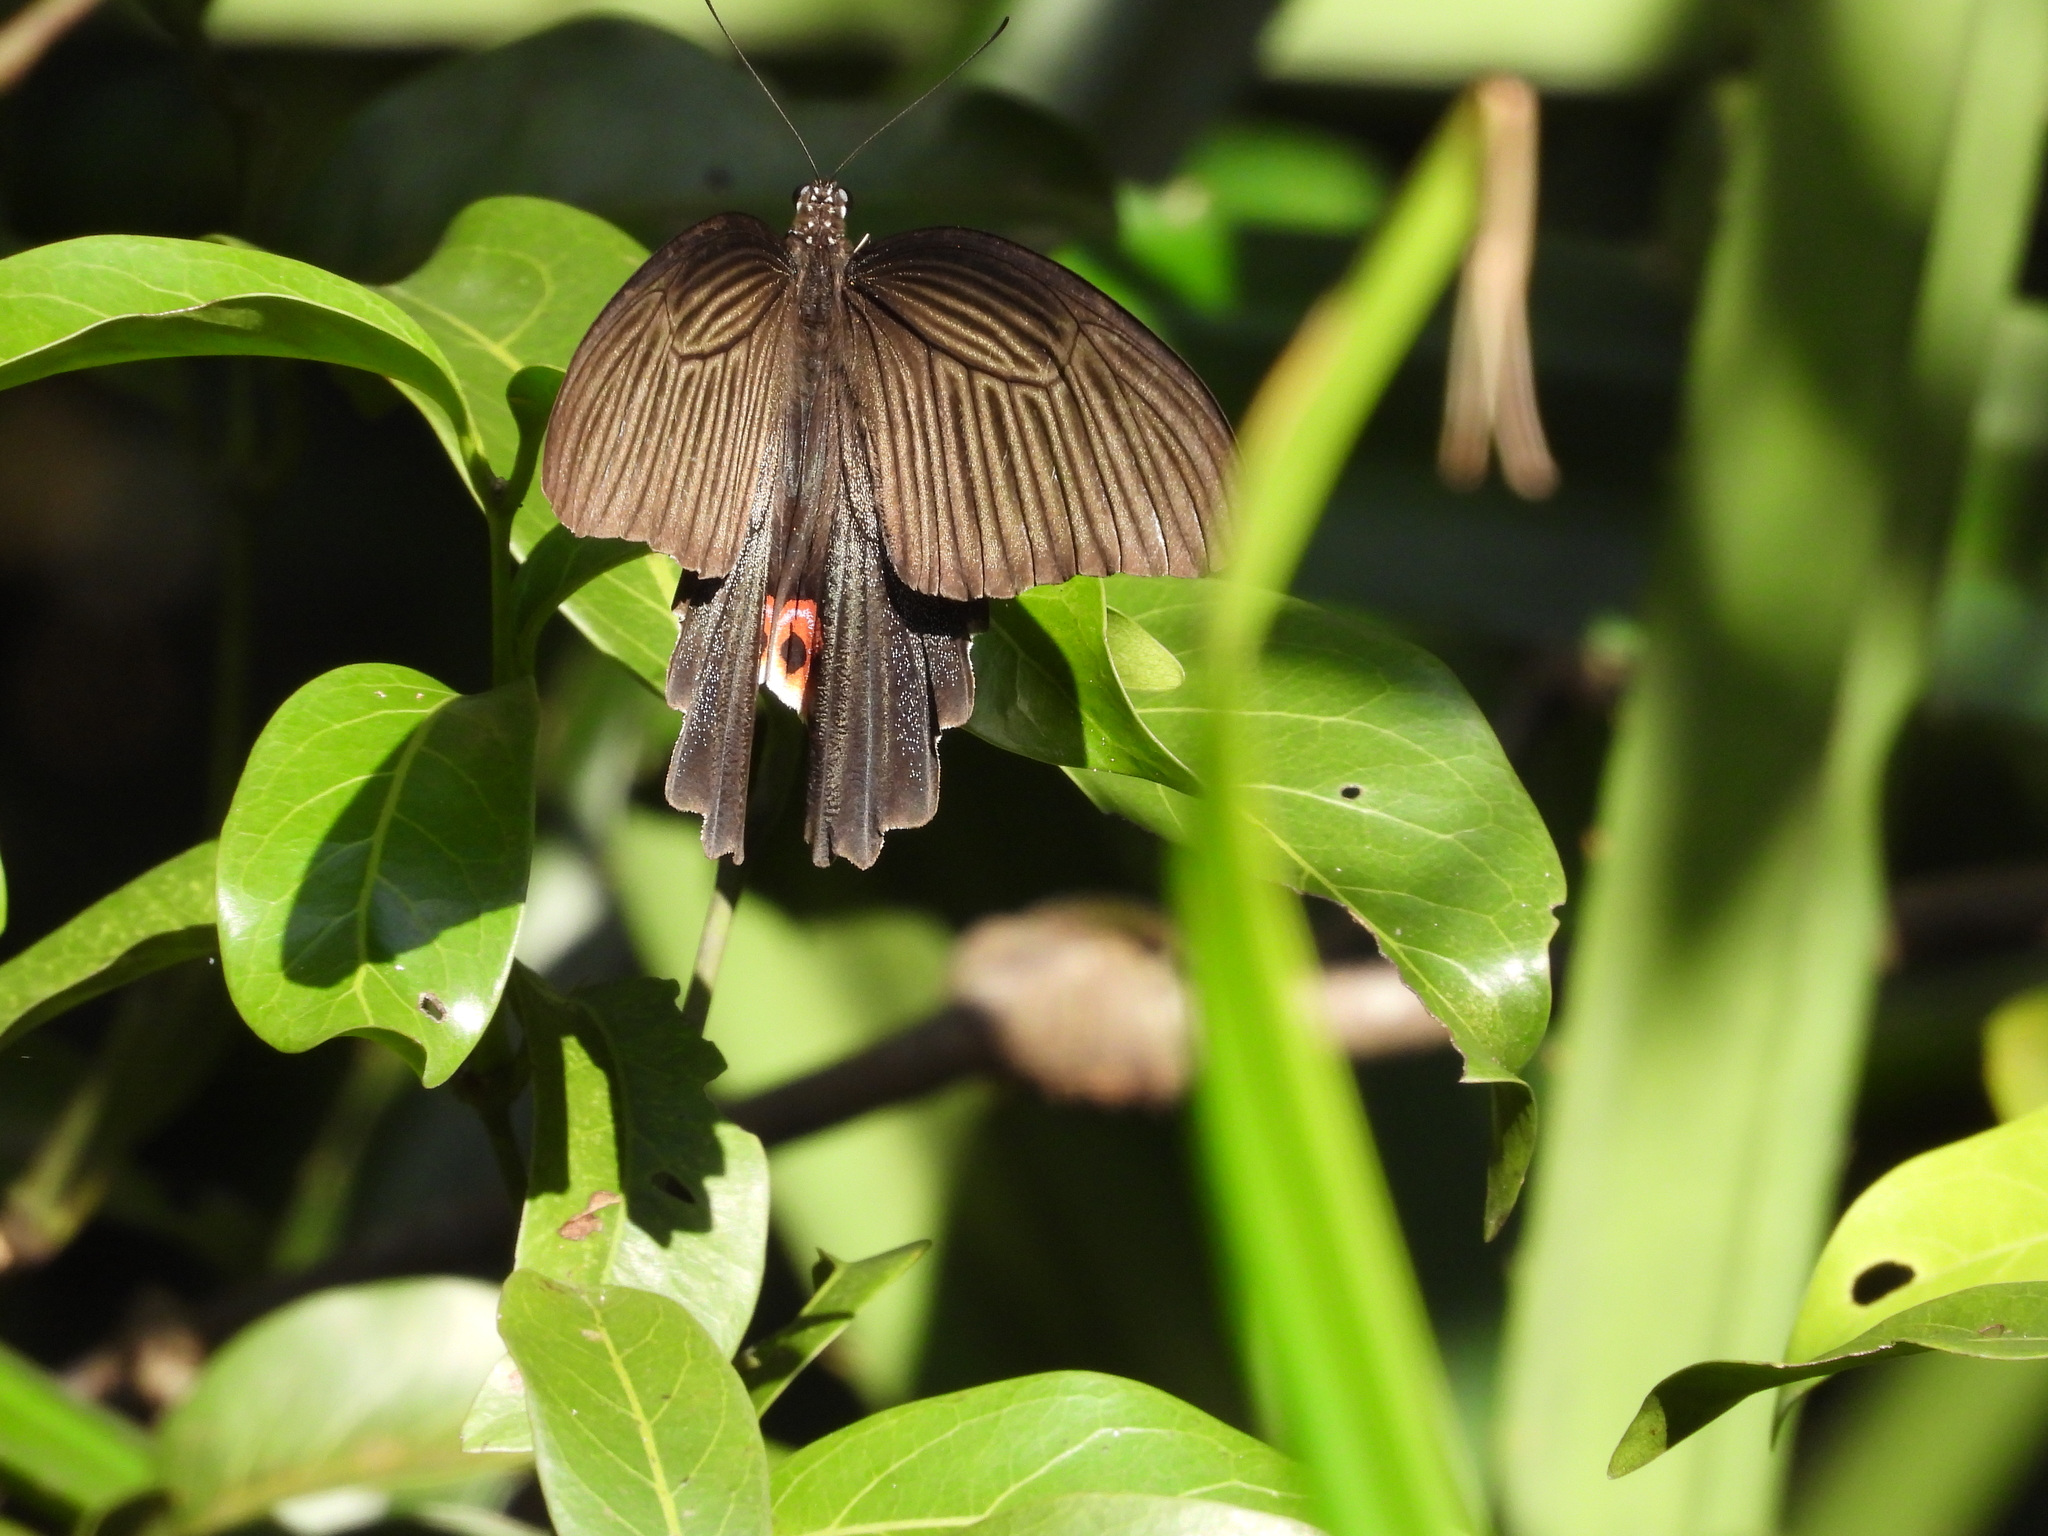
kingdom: Animalia
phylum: Arthropoda
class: Insecta
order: Lepidoptera
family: Papilionidae
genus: Papilio
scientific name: Papilio protenor
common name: Spangle
